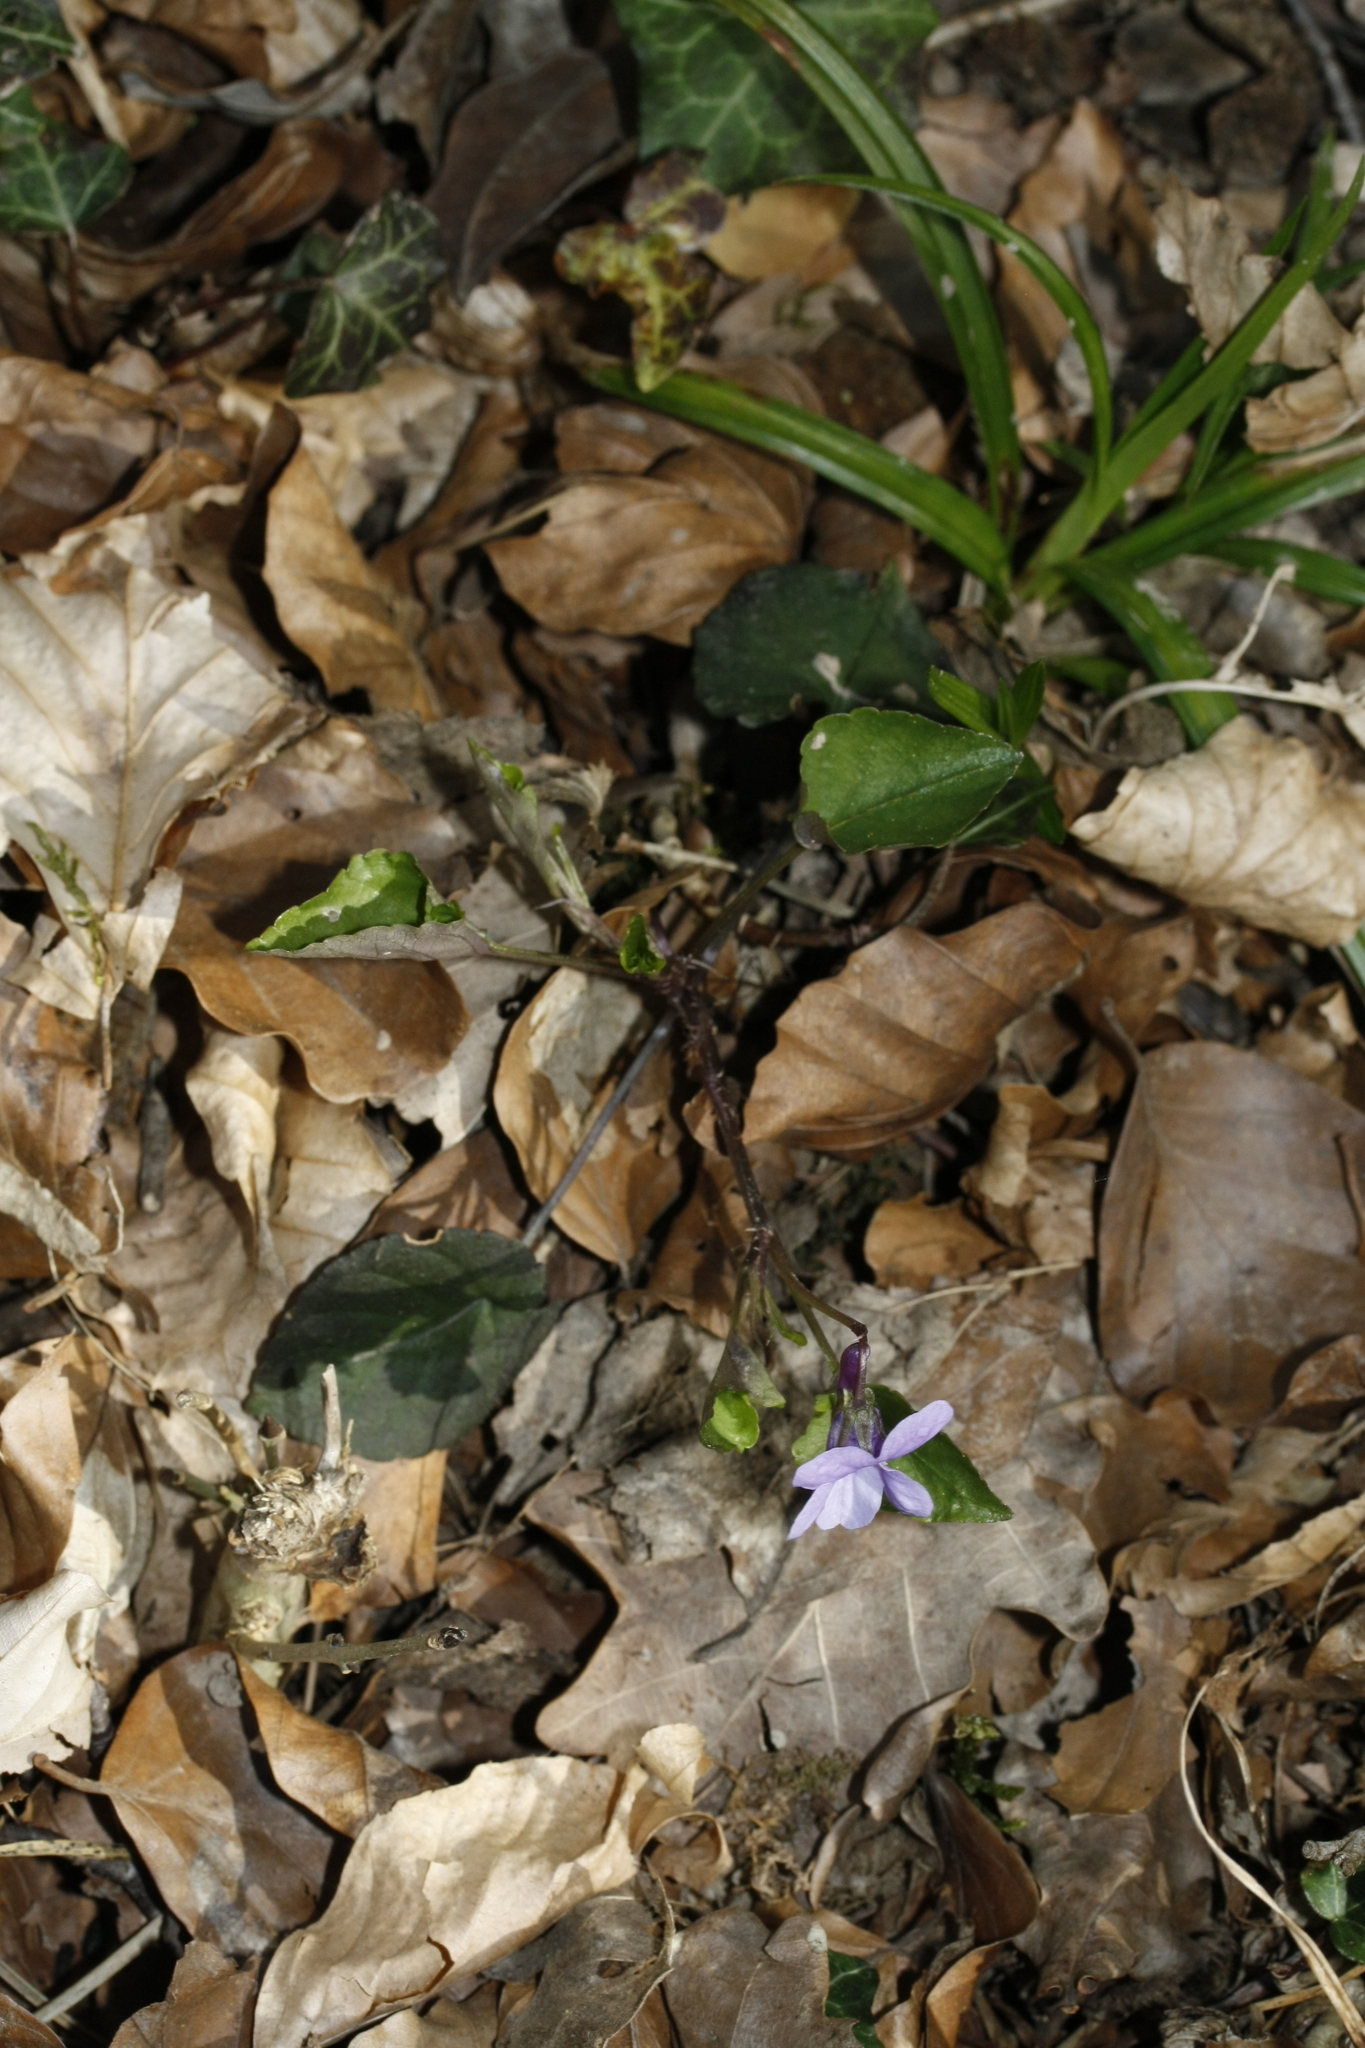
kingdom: Plantae
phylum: Tracheophyta
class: Magnoliopsida
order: Malpighiales
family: Violaceae
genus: Viola
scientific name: Viola reichenbachiana
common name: Early dog-violet
